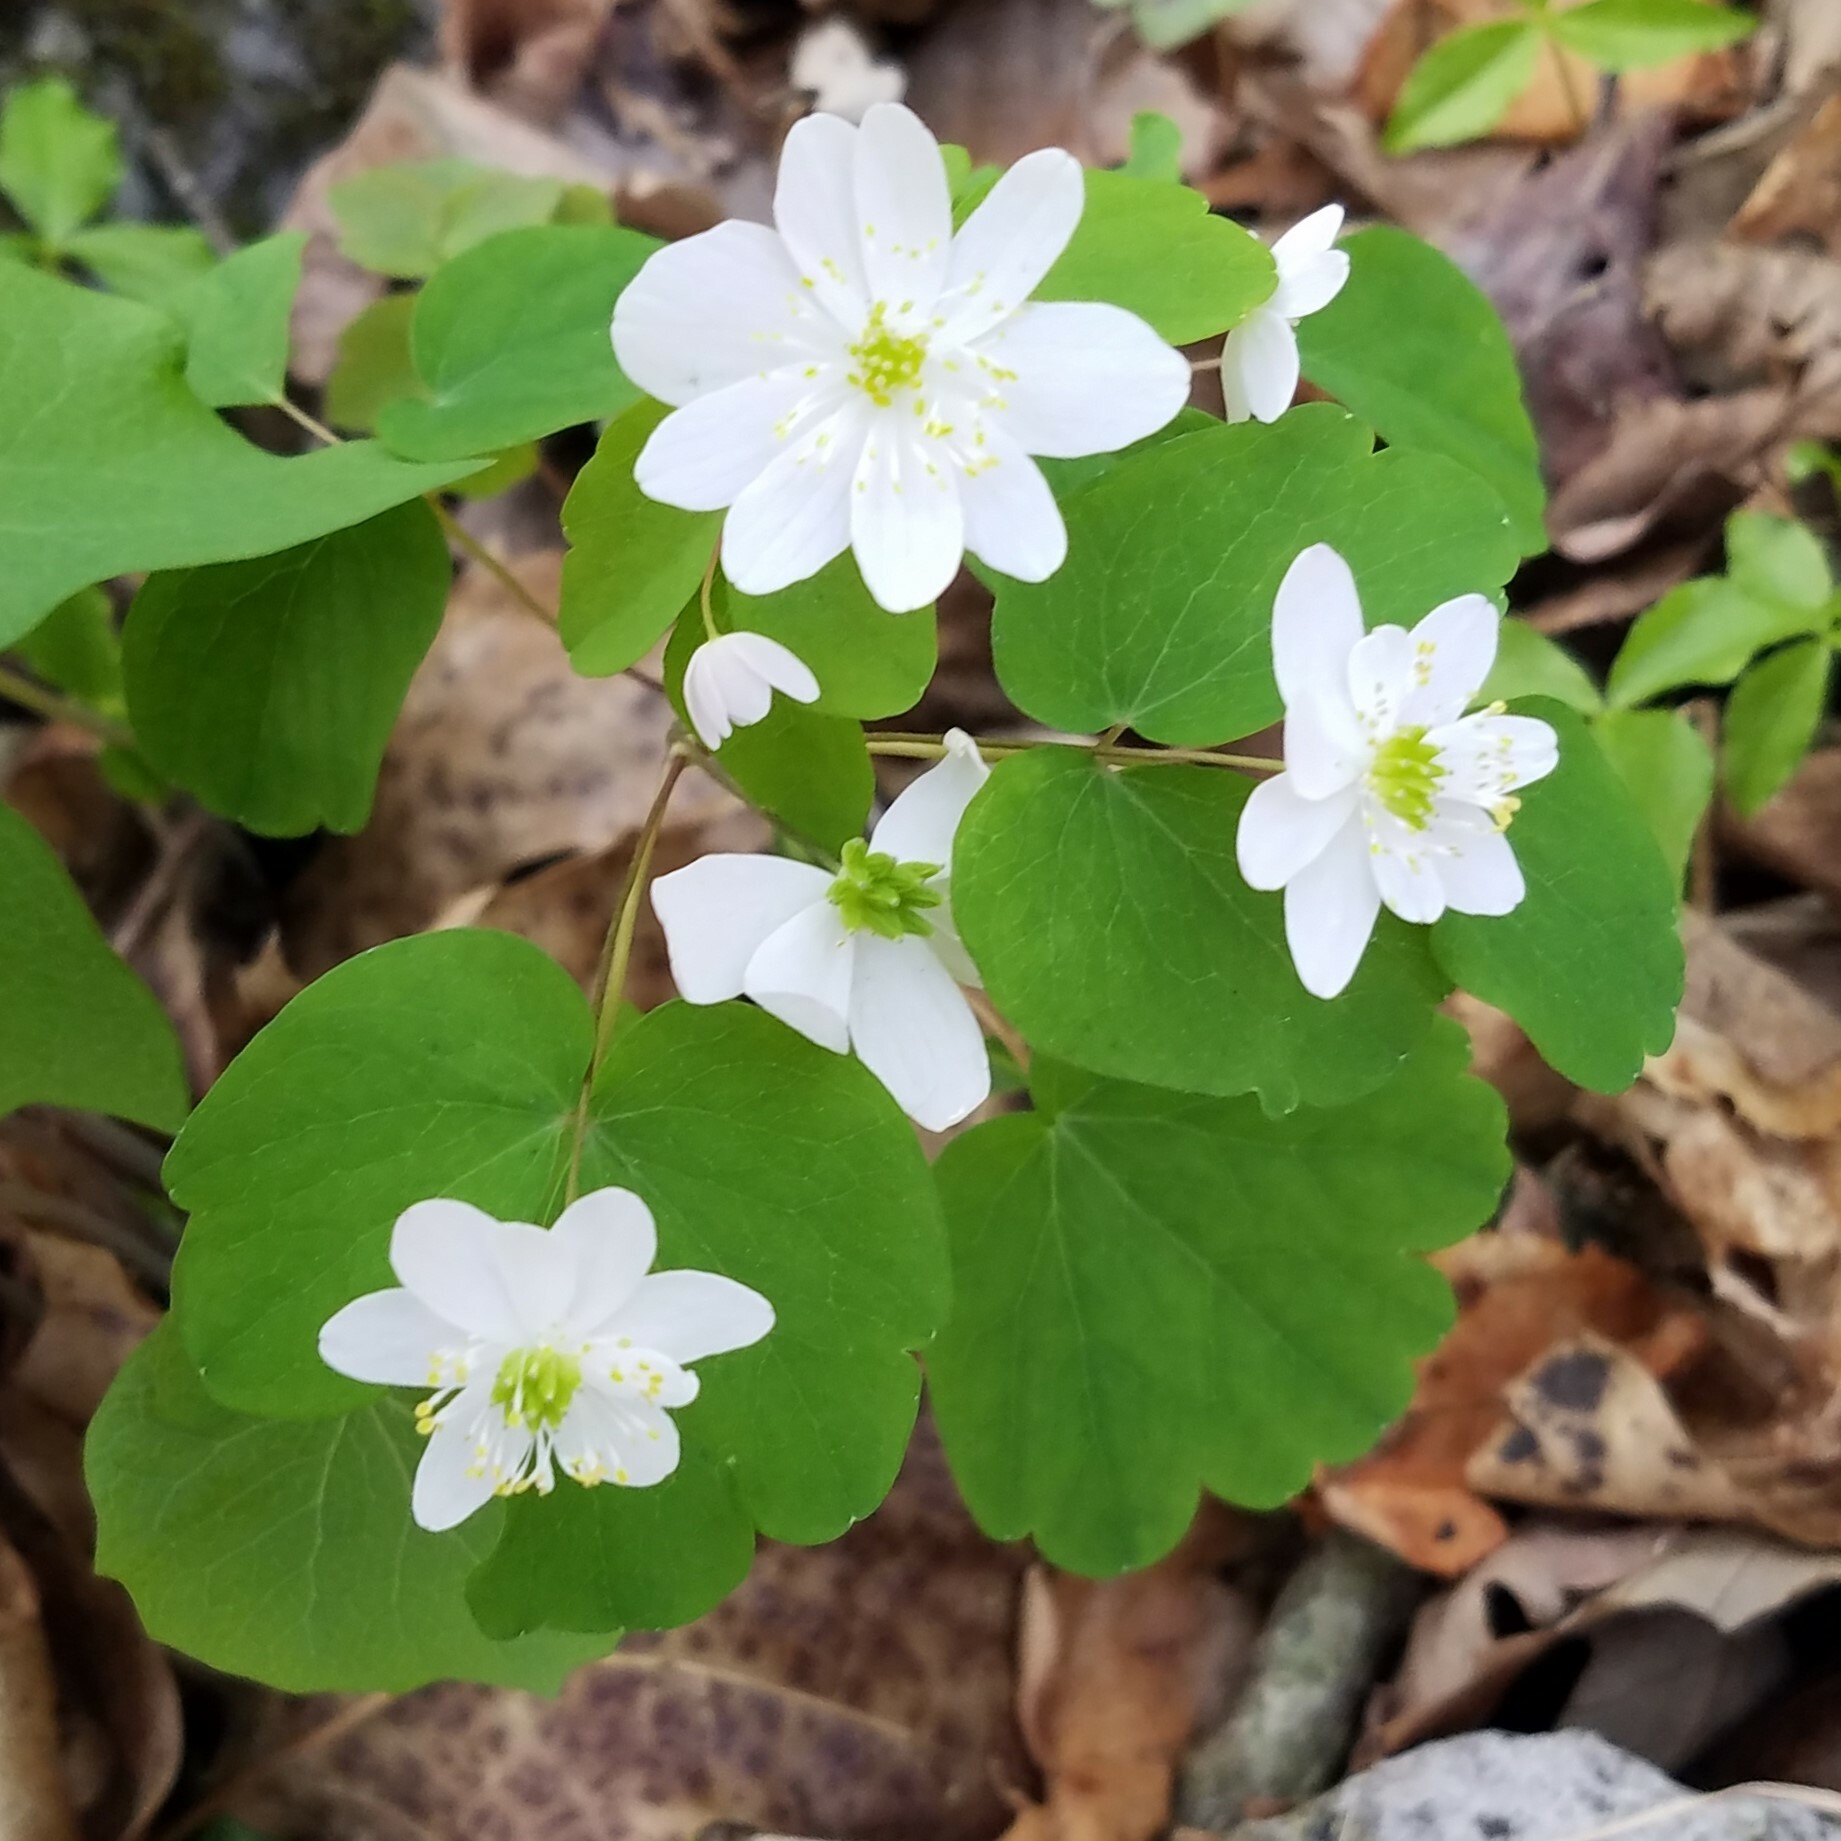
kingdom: Plantae
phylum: Tracheophyta
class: Magnoliopsida
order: Ranunculales
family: Ranunculaceae
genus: Thalictrum
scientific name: Thalictrum thalictroides
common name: Rue-anemone
